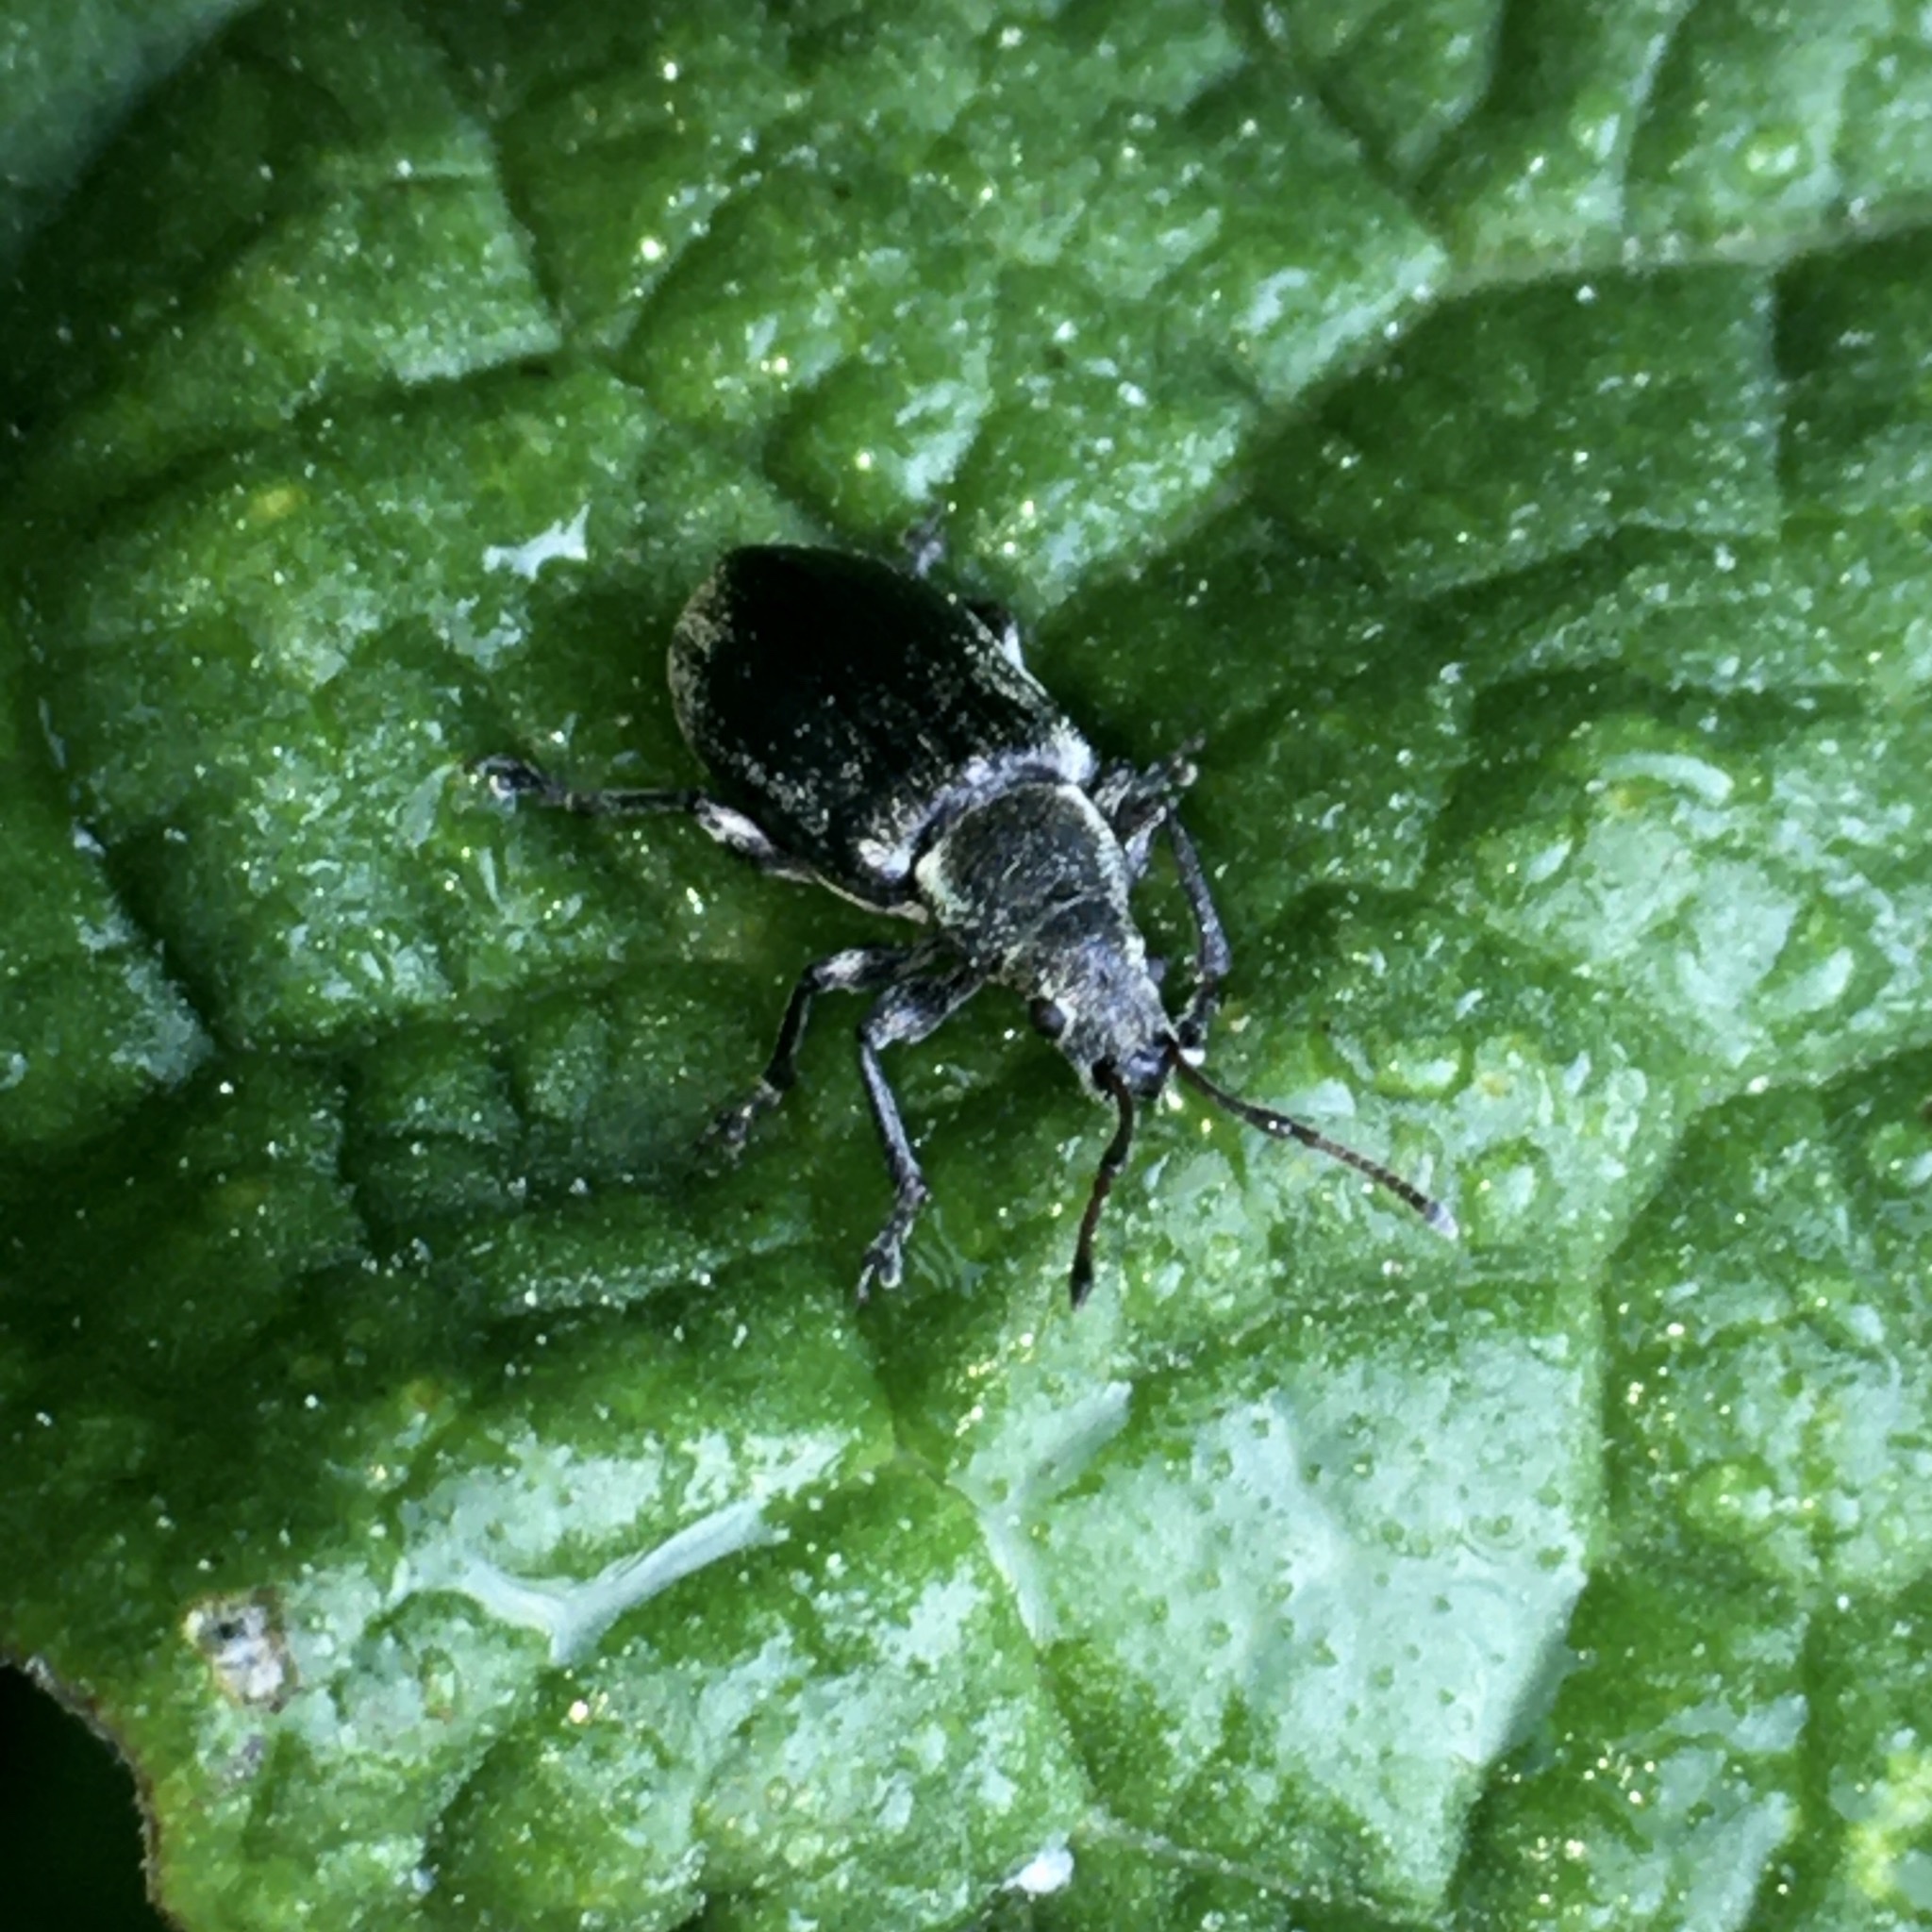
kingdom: Animalia
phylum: Arthropoda
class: Insecta
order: Coleoptera
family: Curculionidae
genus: Phyllobius
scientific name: Phyllobius pyri
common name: Common leaf weevil
